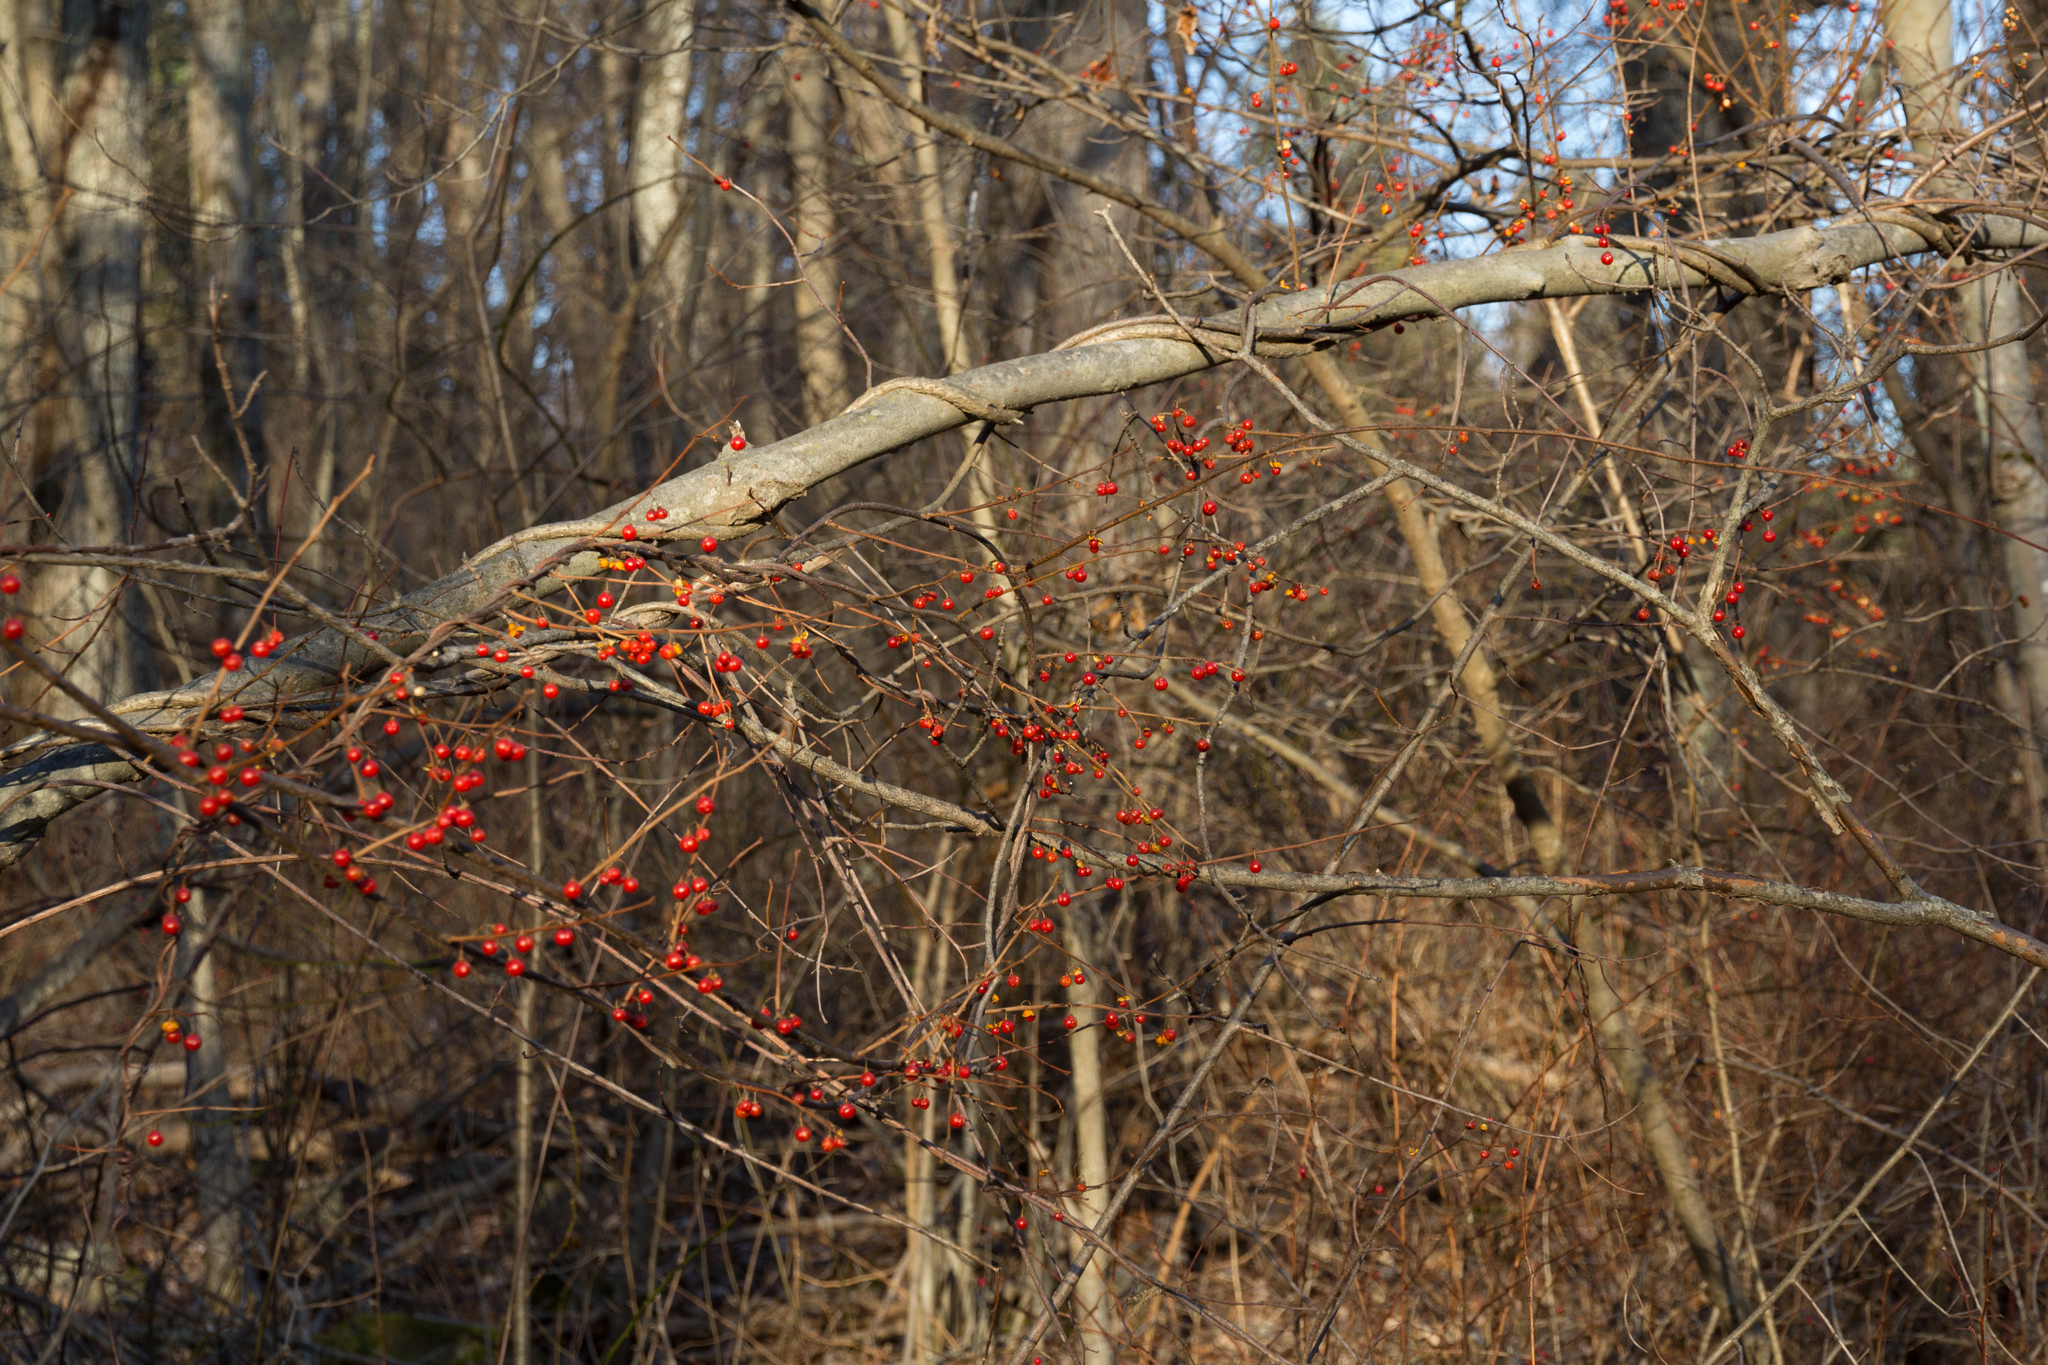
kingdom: Plantae
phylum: Tracheophyta
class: Magnoliopsida
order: Celastrales
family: Celastraceae
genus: Celastrus
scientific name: Celastrus orbiculatus
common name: Oriental bittersweet
